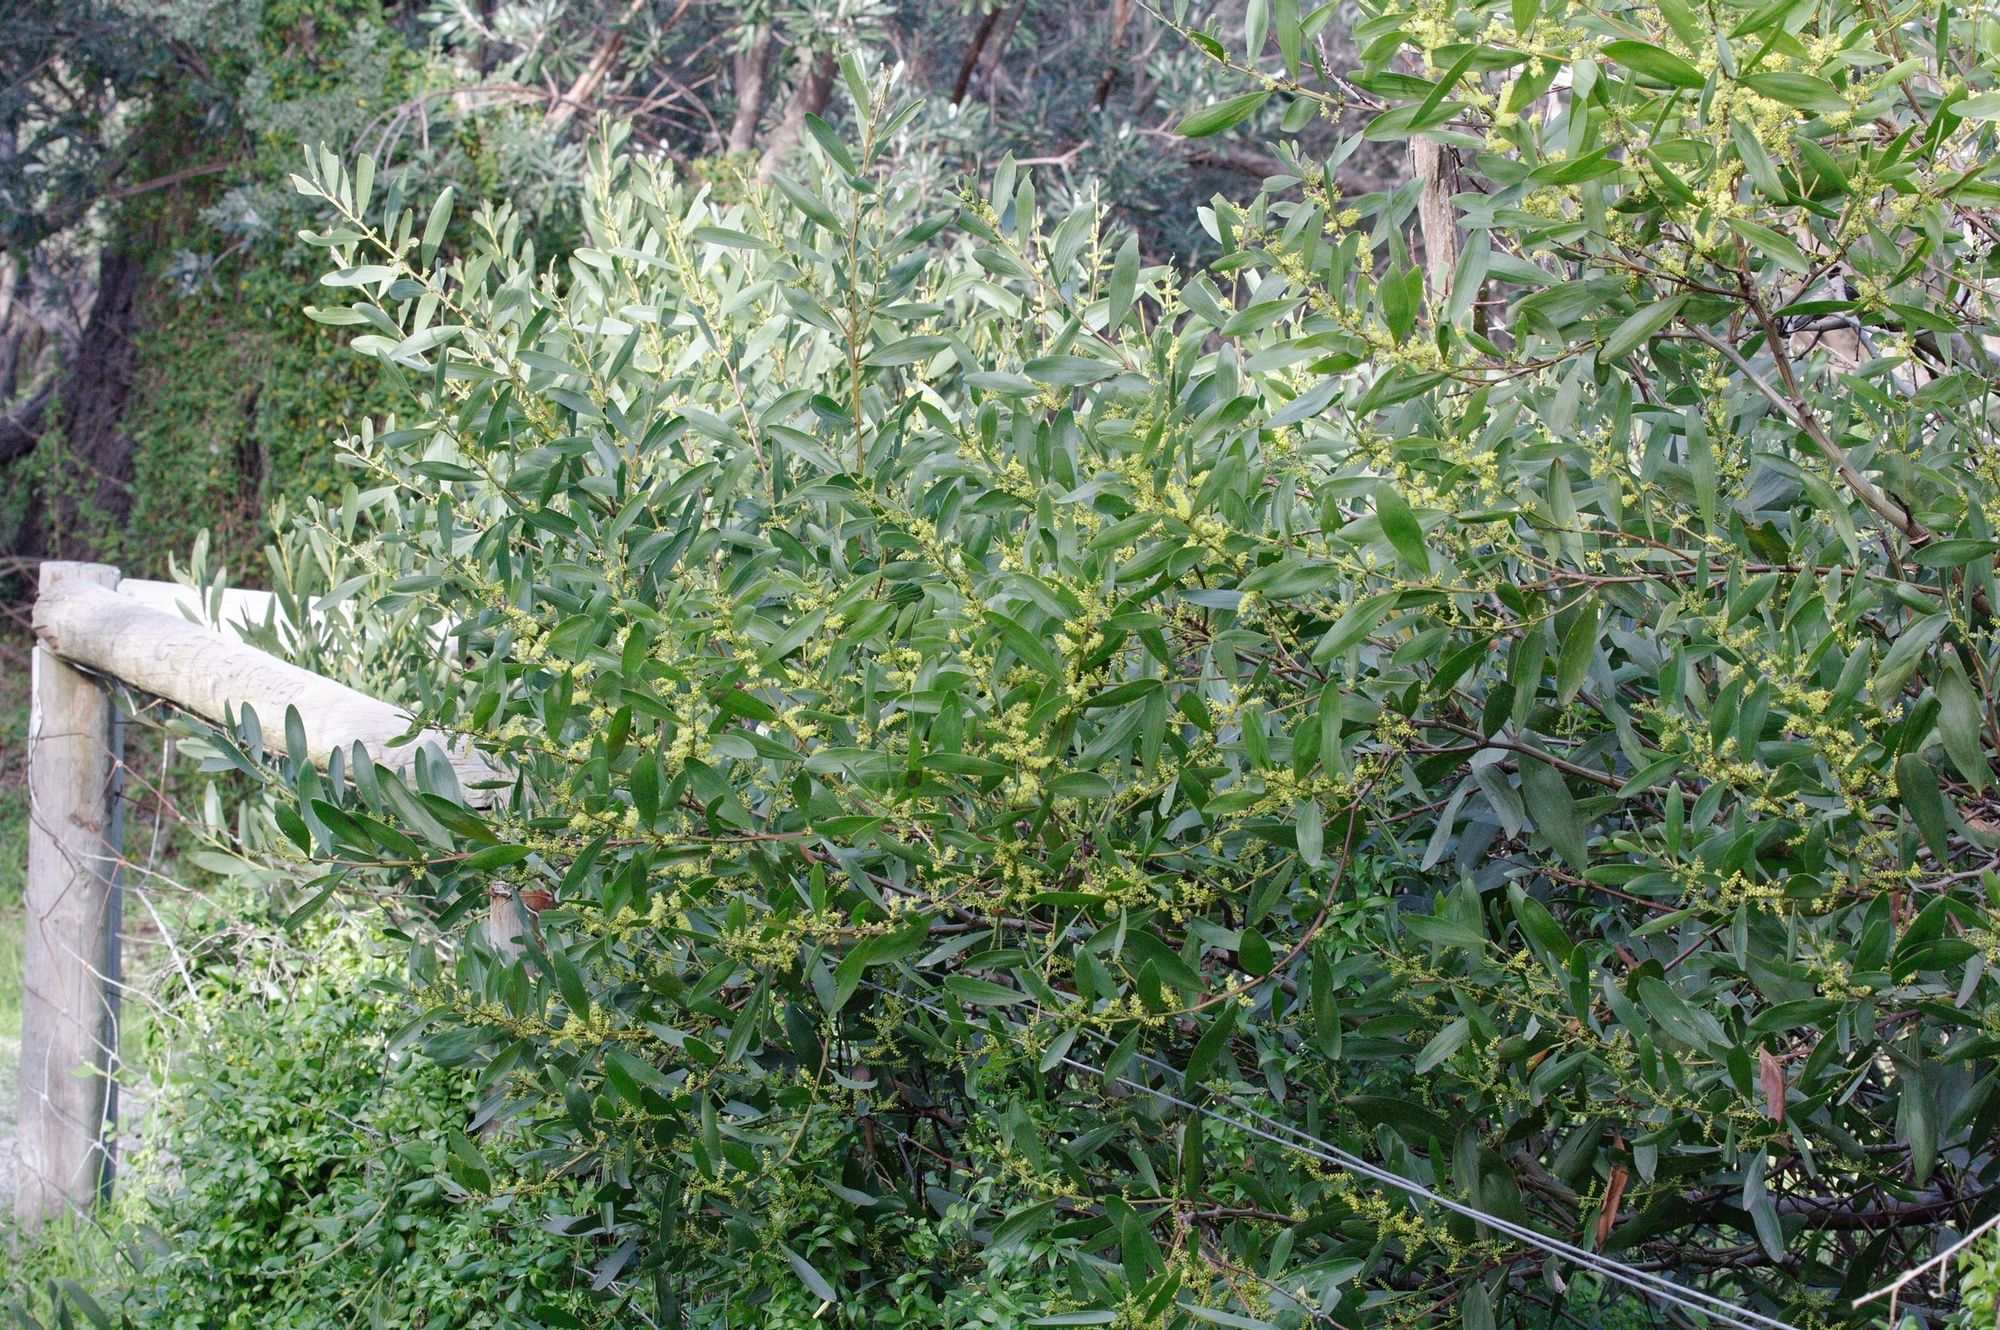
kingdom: Plantae
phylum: Tracheophyta
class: Magnoliopsida
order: Fabales
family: Fabaceae
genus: Acacia
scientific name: Acacia longifolia
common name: Sydney golden wattle
